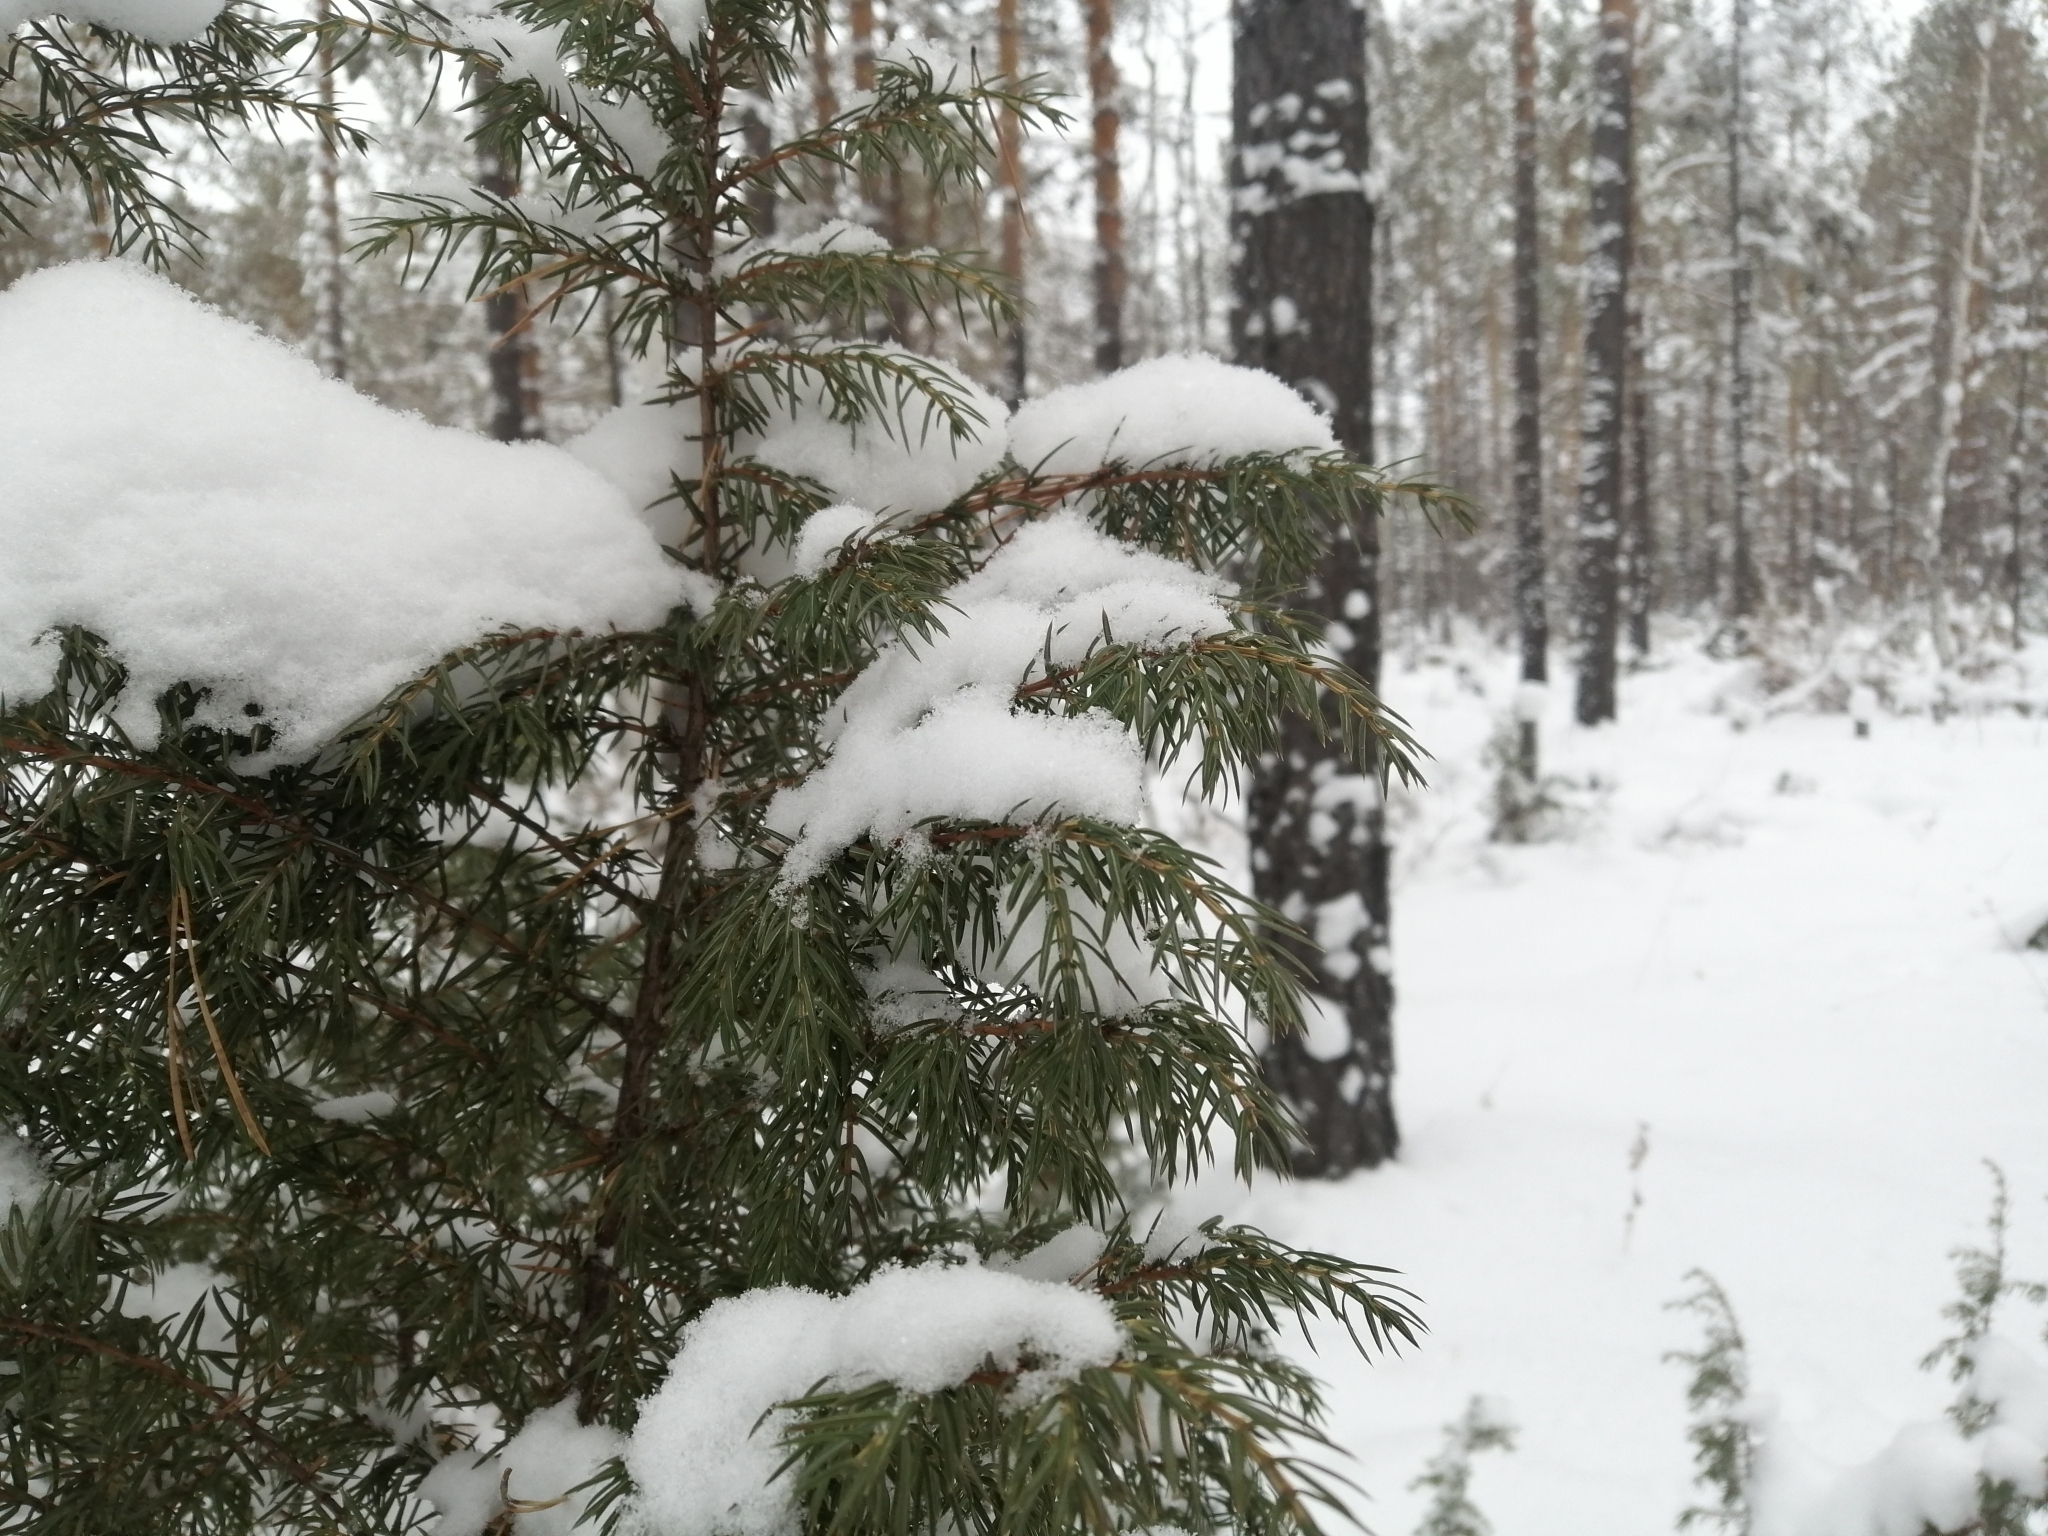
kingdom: Plantae
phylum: Tracheophyta
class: Pinopsida
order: Pinales
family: Cupressaceae
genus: Juniperus
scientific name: Juniperus communis
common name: Common juniper
